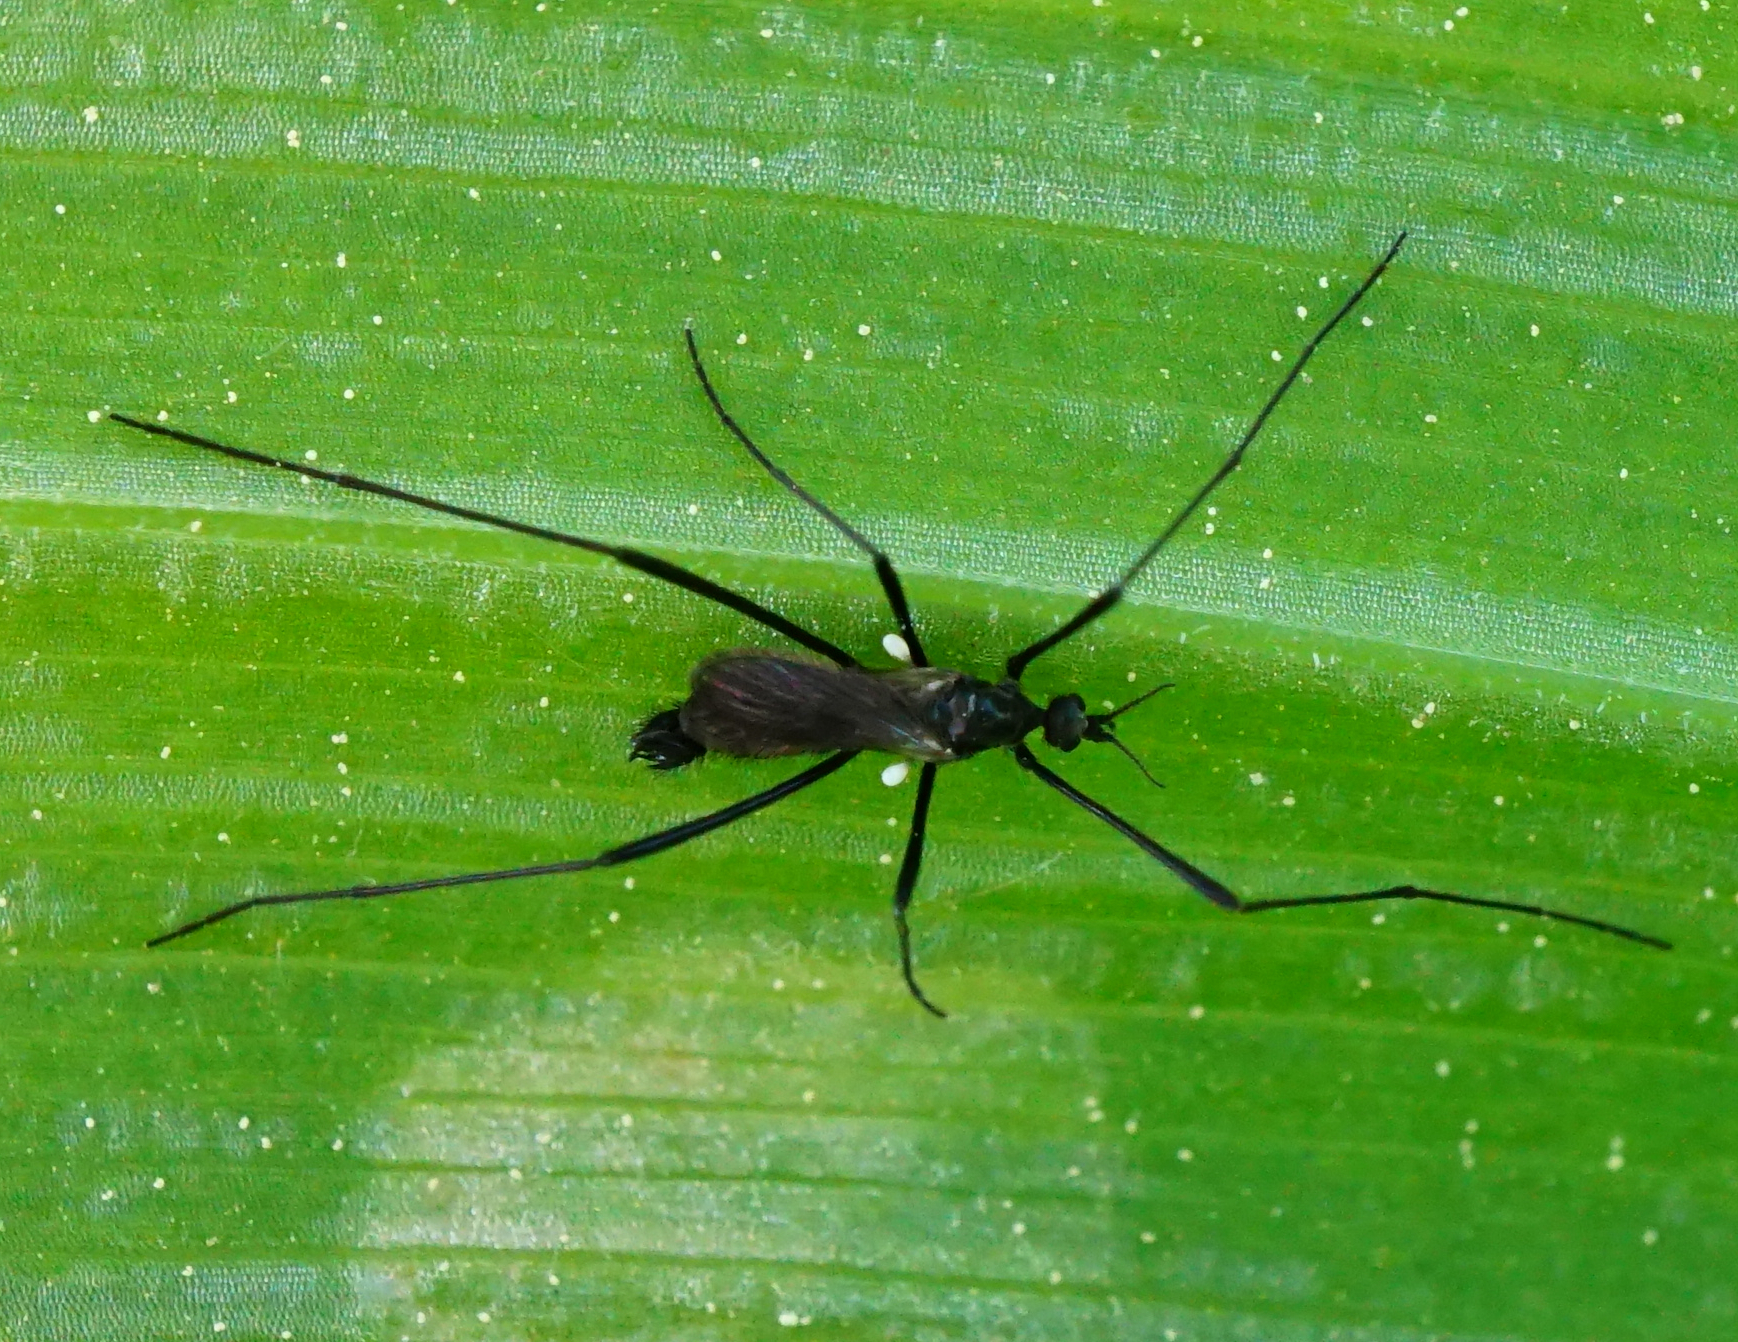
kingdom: Animalia
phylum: Arthropoda
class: Insecta
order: Diptera
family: Limoniidae
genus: Molophilus
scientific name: Molophilus ater
